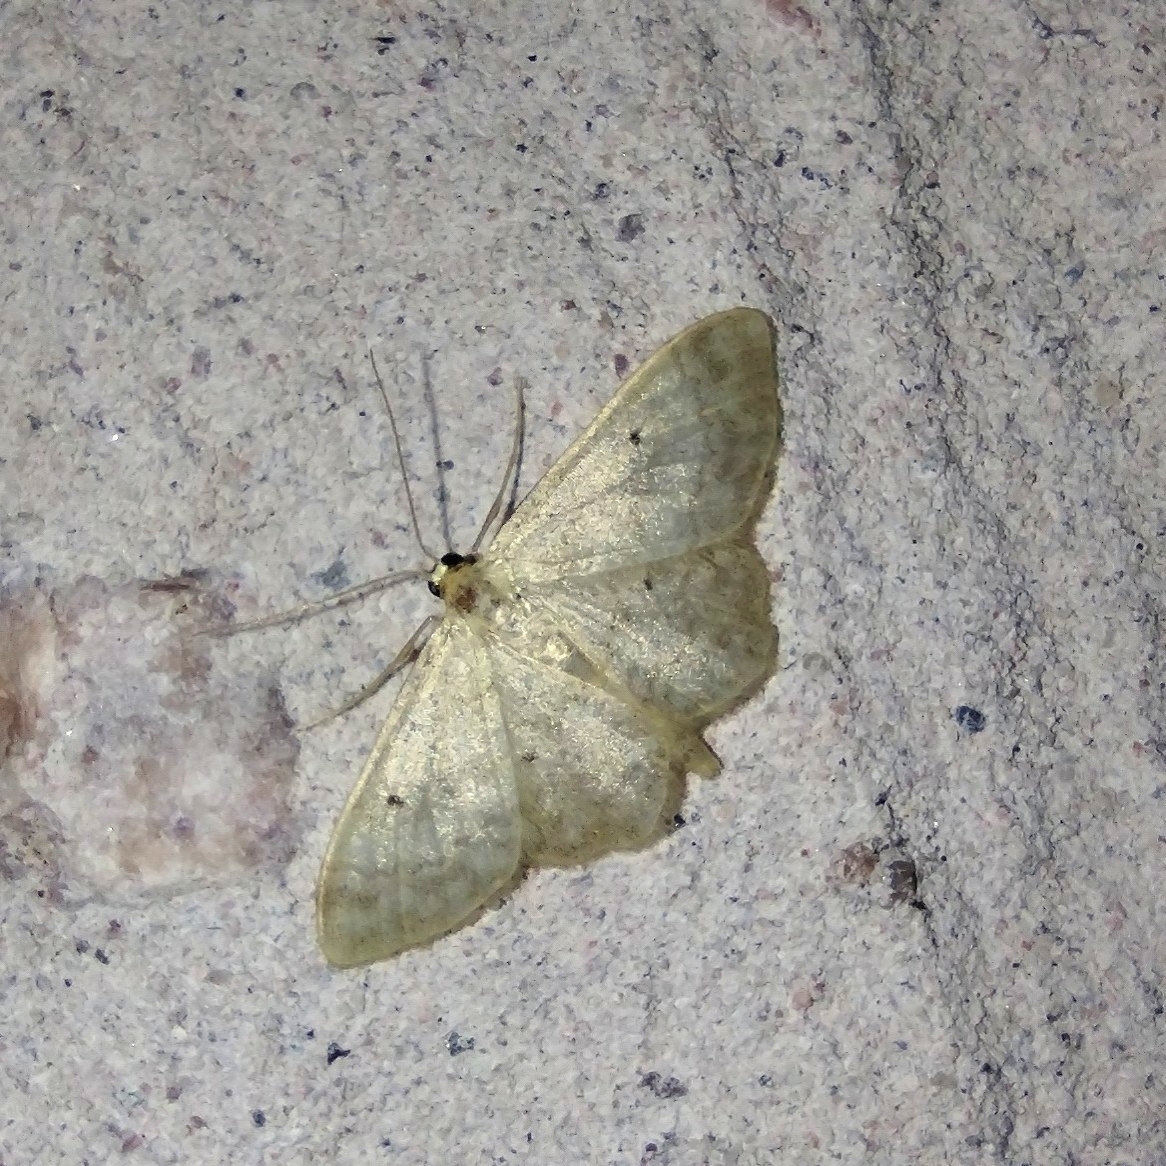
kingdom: Animalia
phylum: Arthropoda
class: Insecta
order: Lepidoptera
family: Geometridae
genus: Idaea
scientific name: Idaea biselata
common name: Small fan-footed wave
